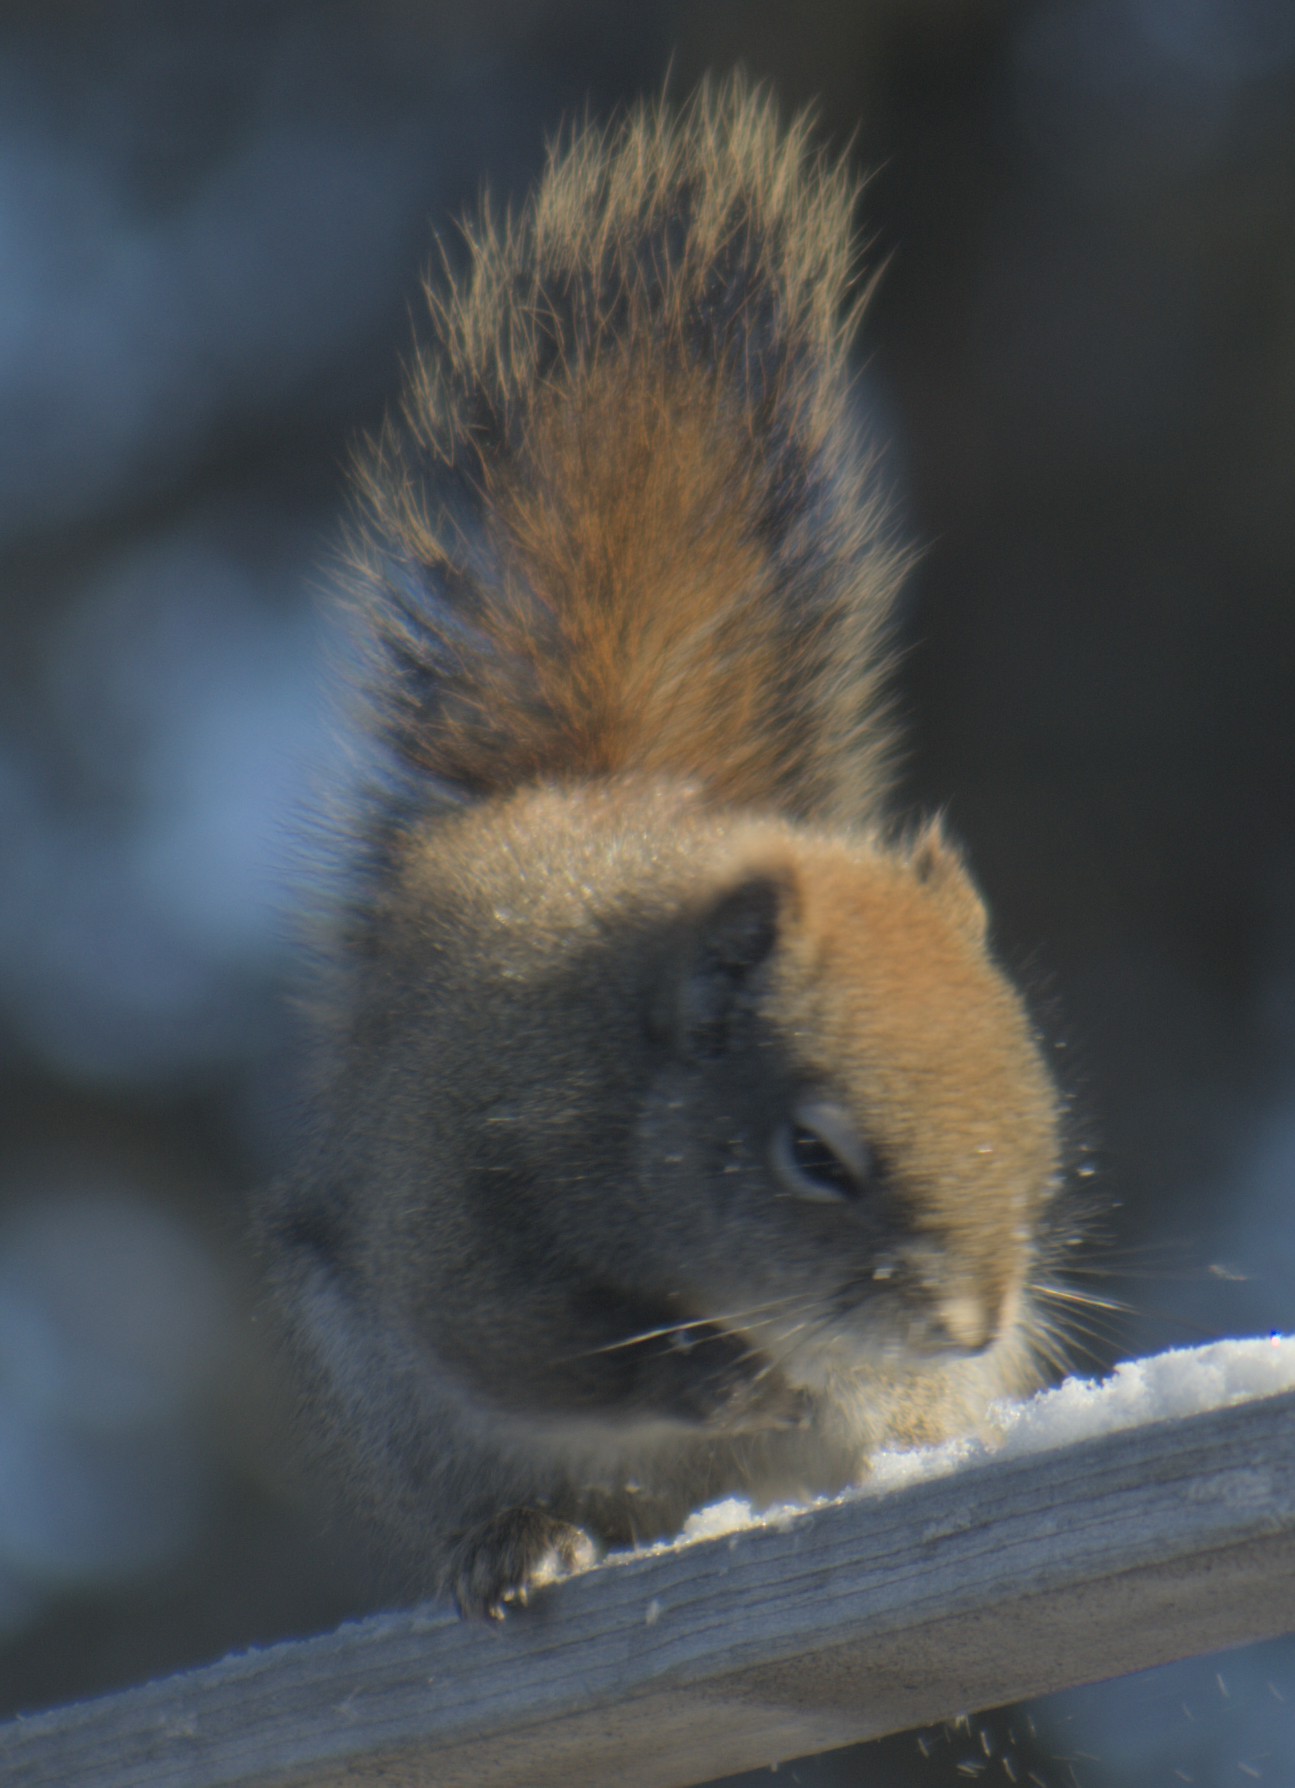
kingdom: Animalia
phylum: Chordata
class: Mammalia
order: Rodentia
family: Sciuridae
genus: Tamiasciurus
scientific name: Tamiasciurus hudsonicus
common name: Red squirrel
